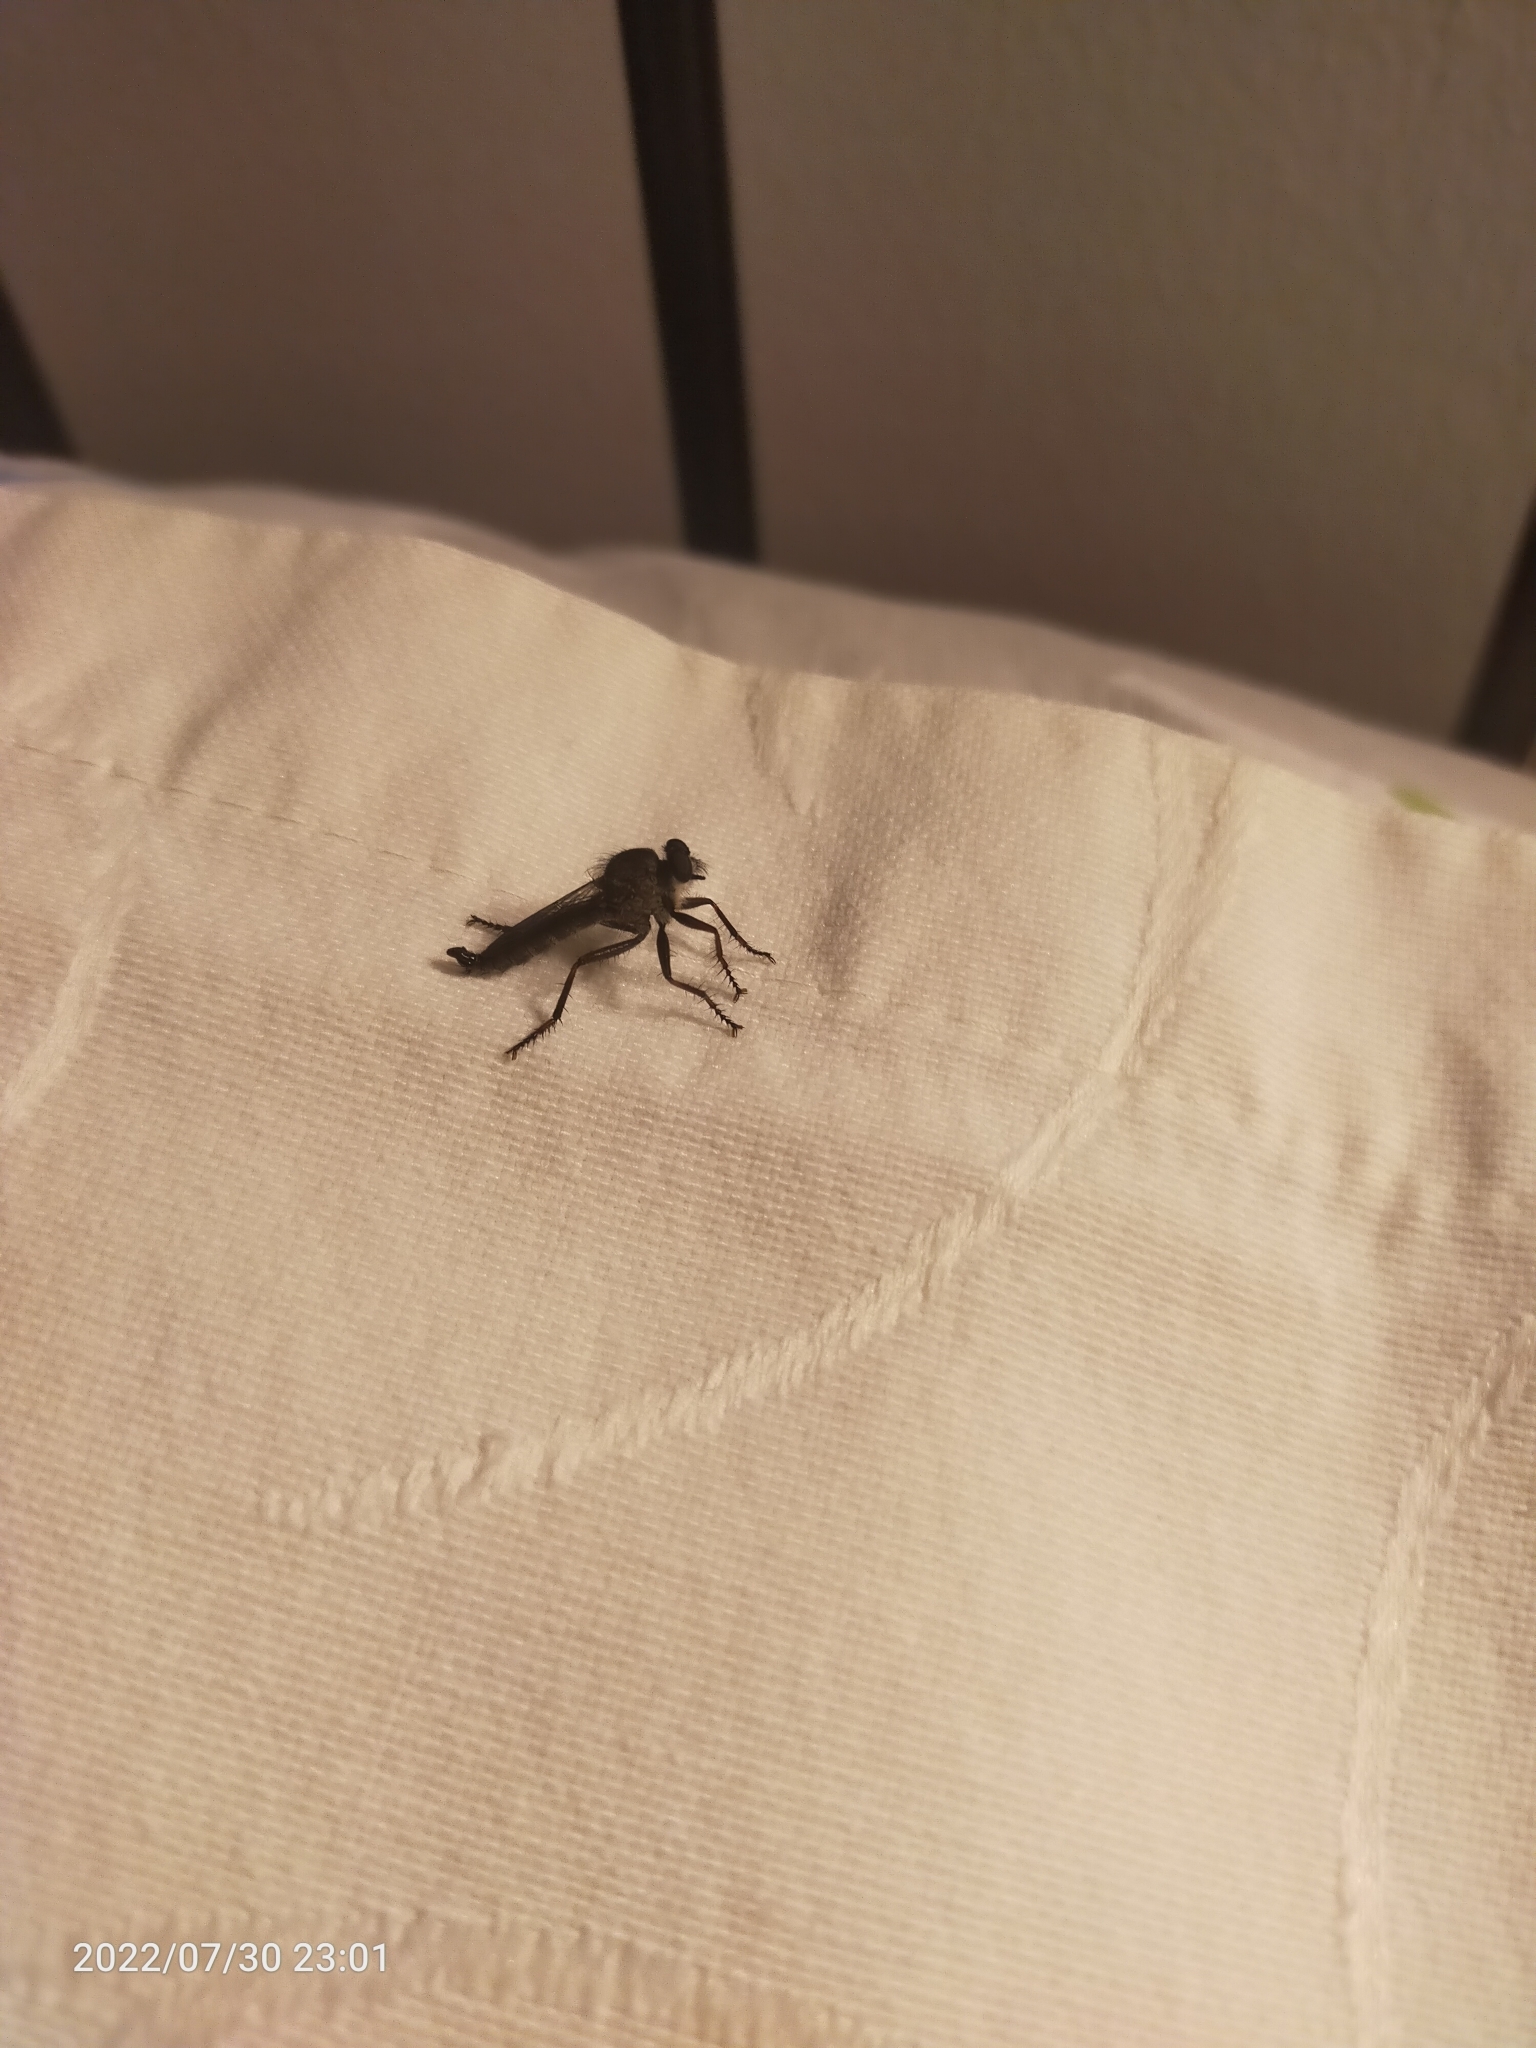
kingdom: Animalia
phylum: Arthropoda
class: Insecta
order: Diptera
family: Asilidae
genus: Tolmerus
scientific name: Tolmerus
